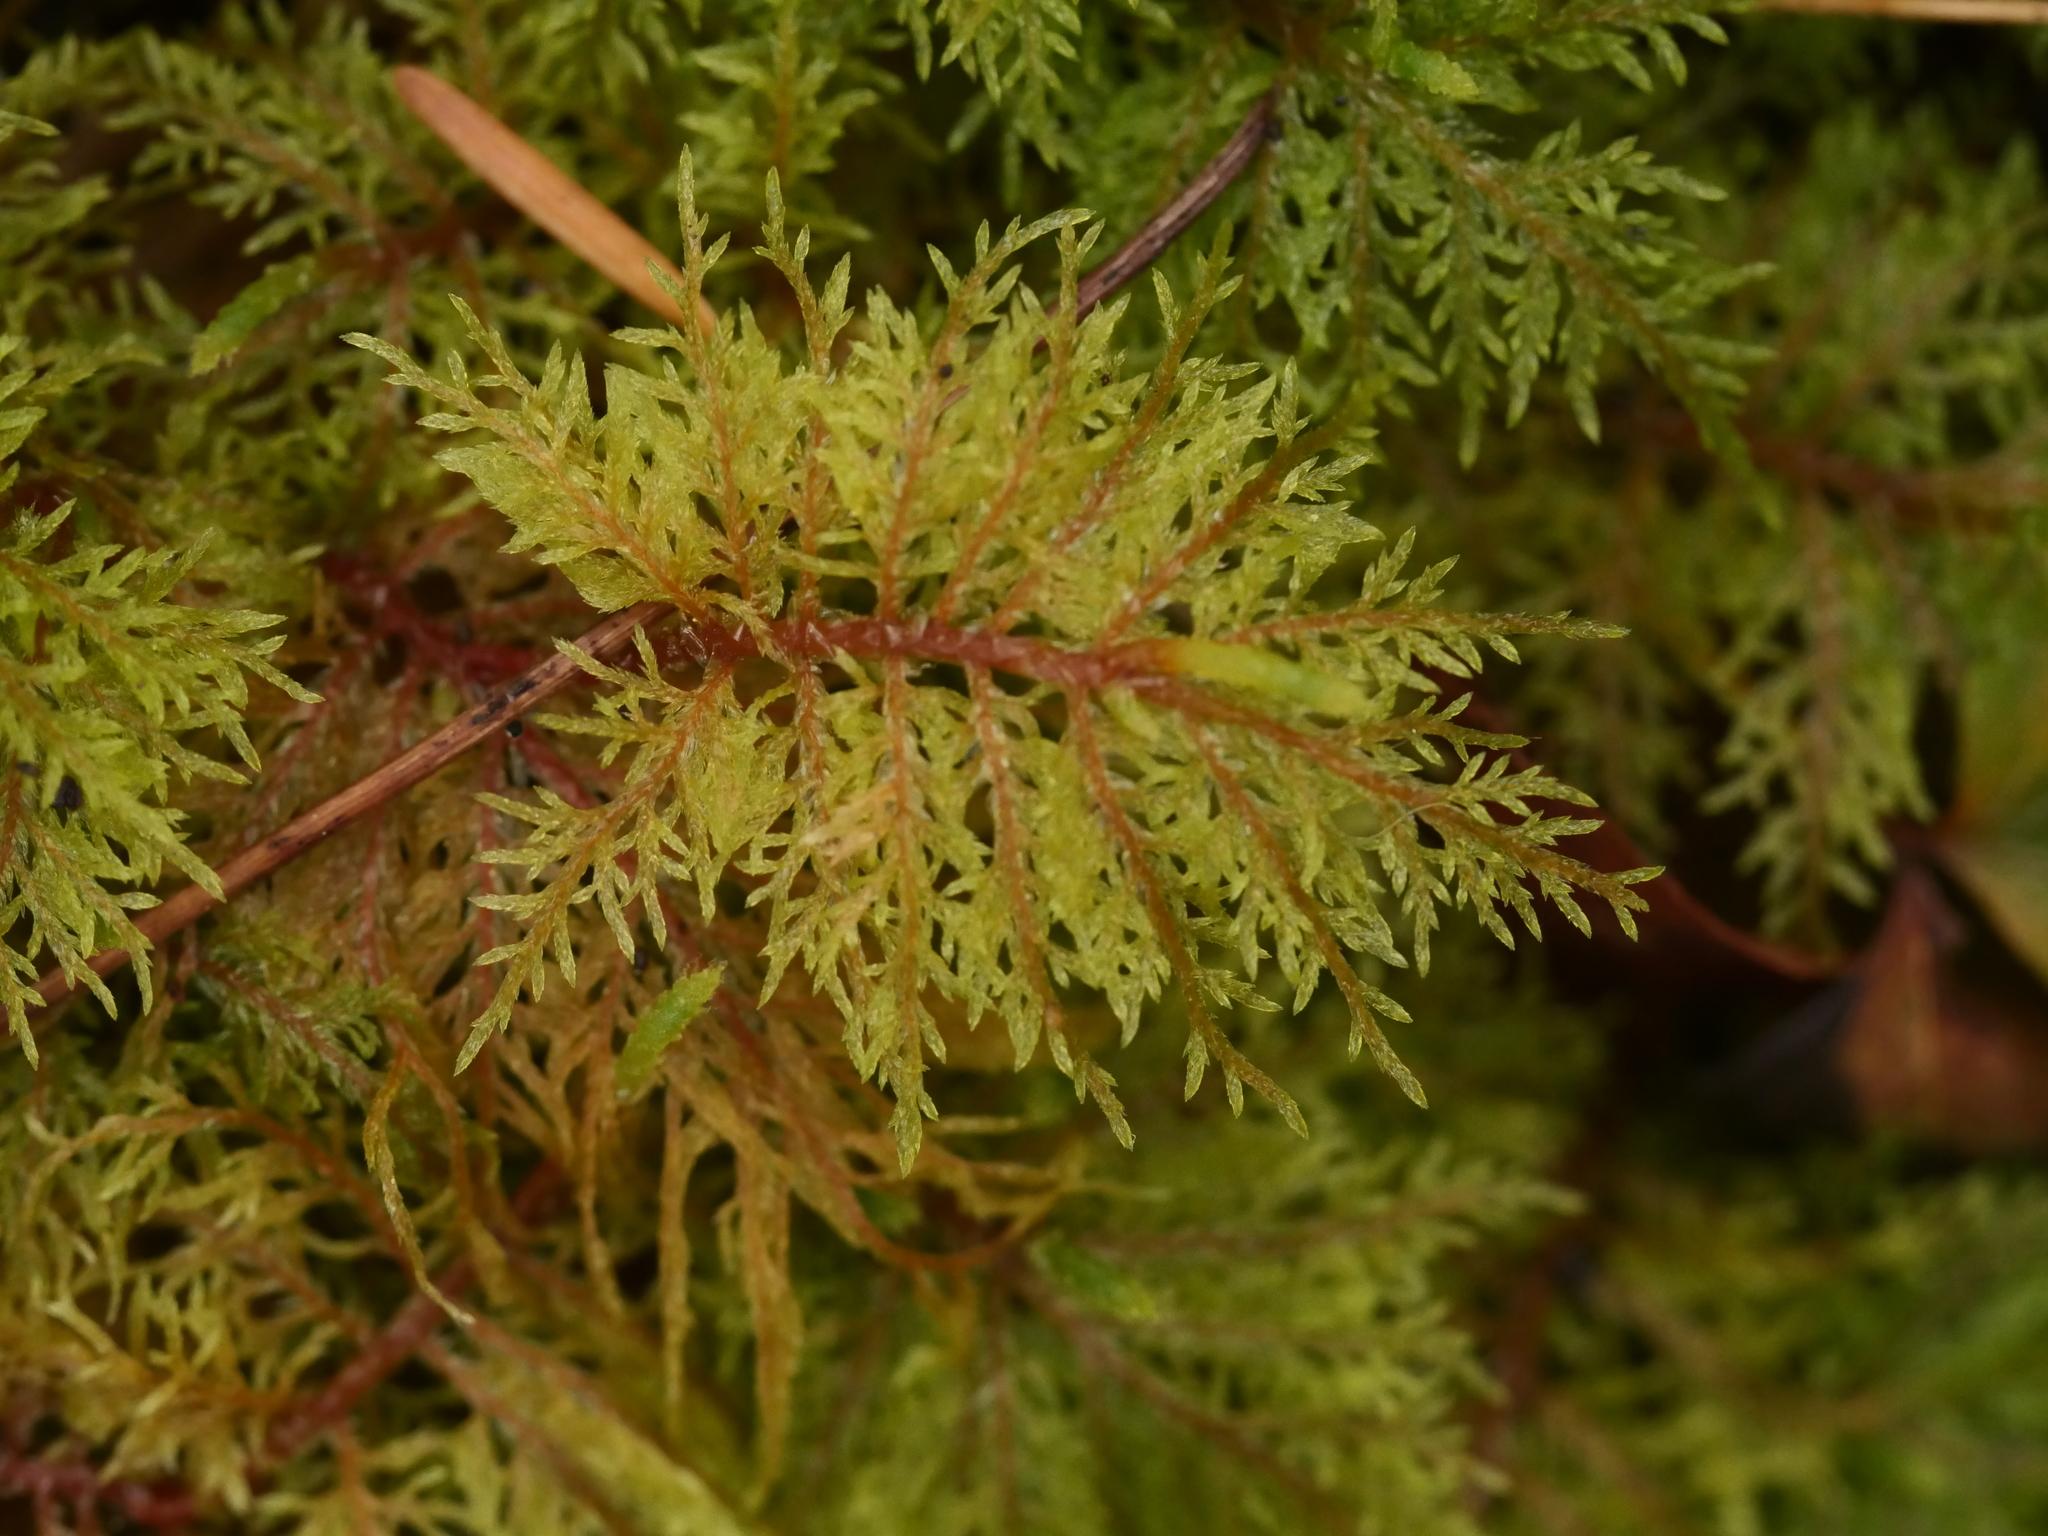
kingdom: Plantae
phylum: Bryophyta
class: Bryopsida
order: Hypnales
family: Hylocomiaceae
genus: Hylocomium
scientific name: Hylocomium splendens
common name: Stairstep moss
